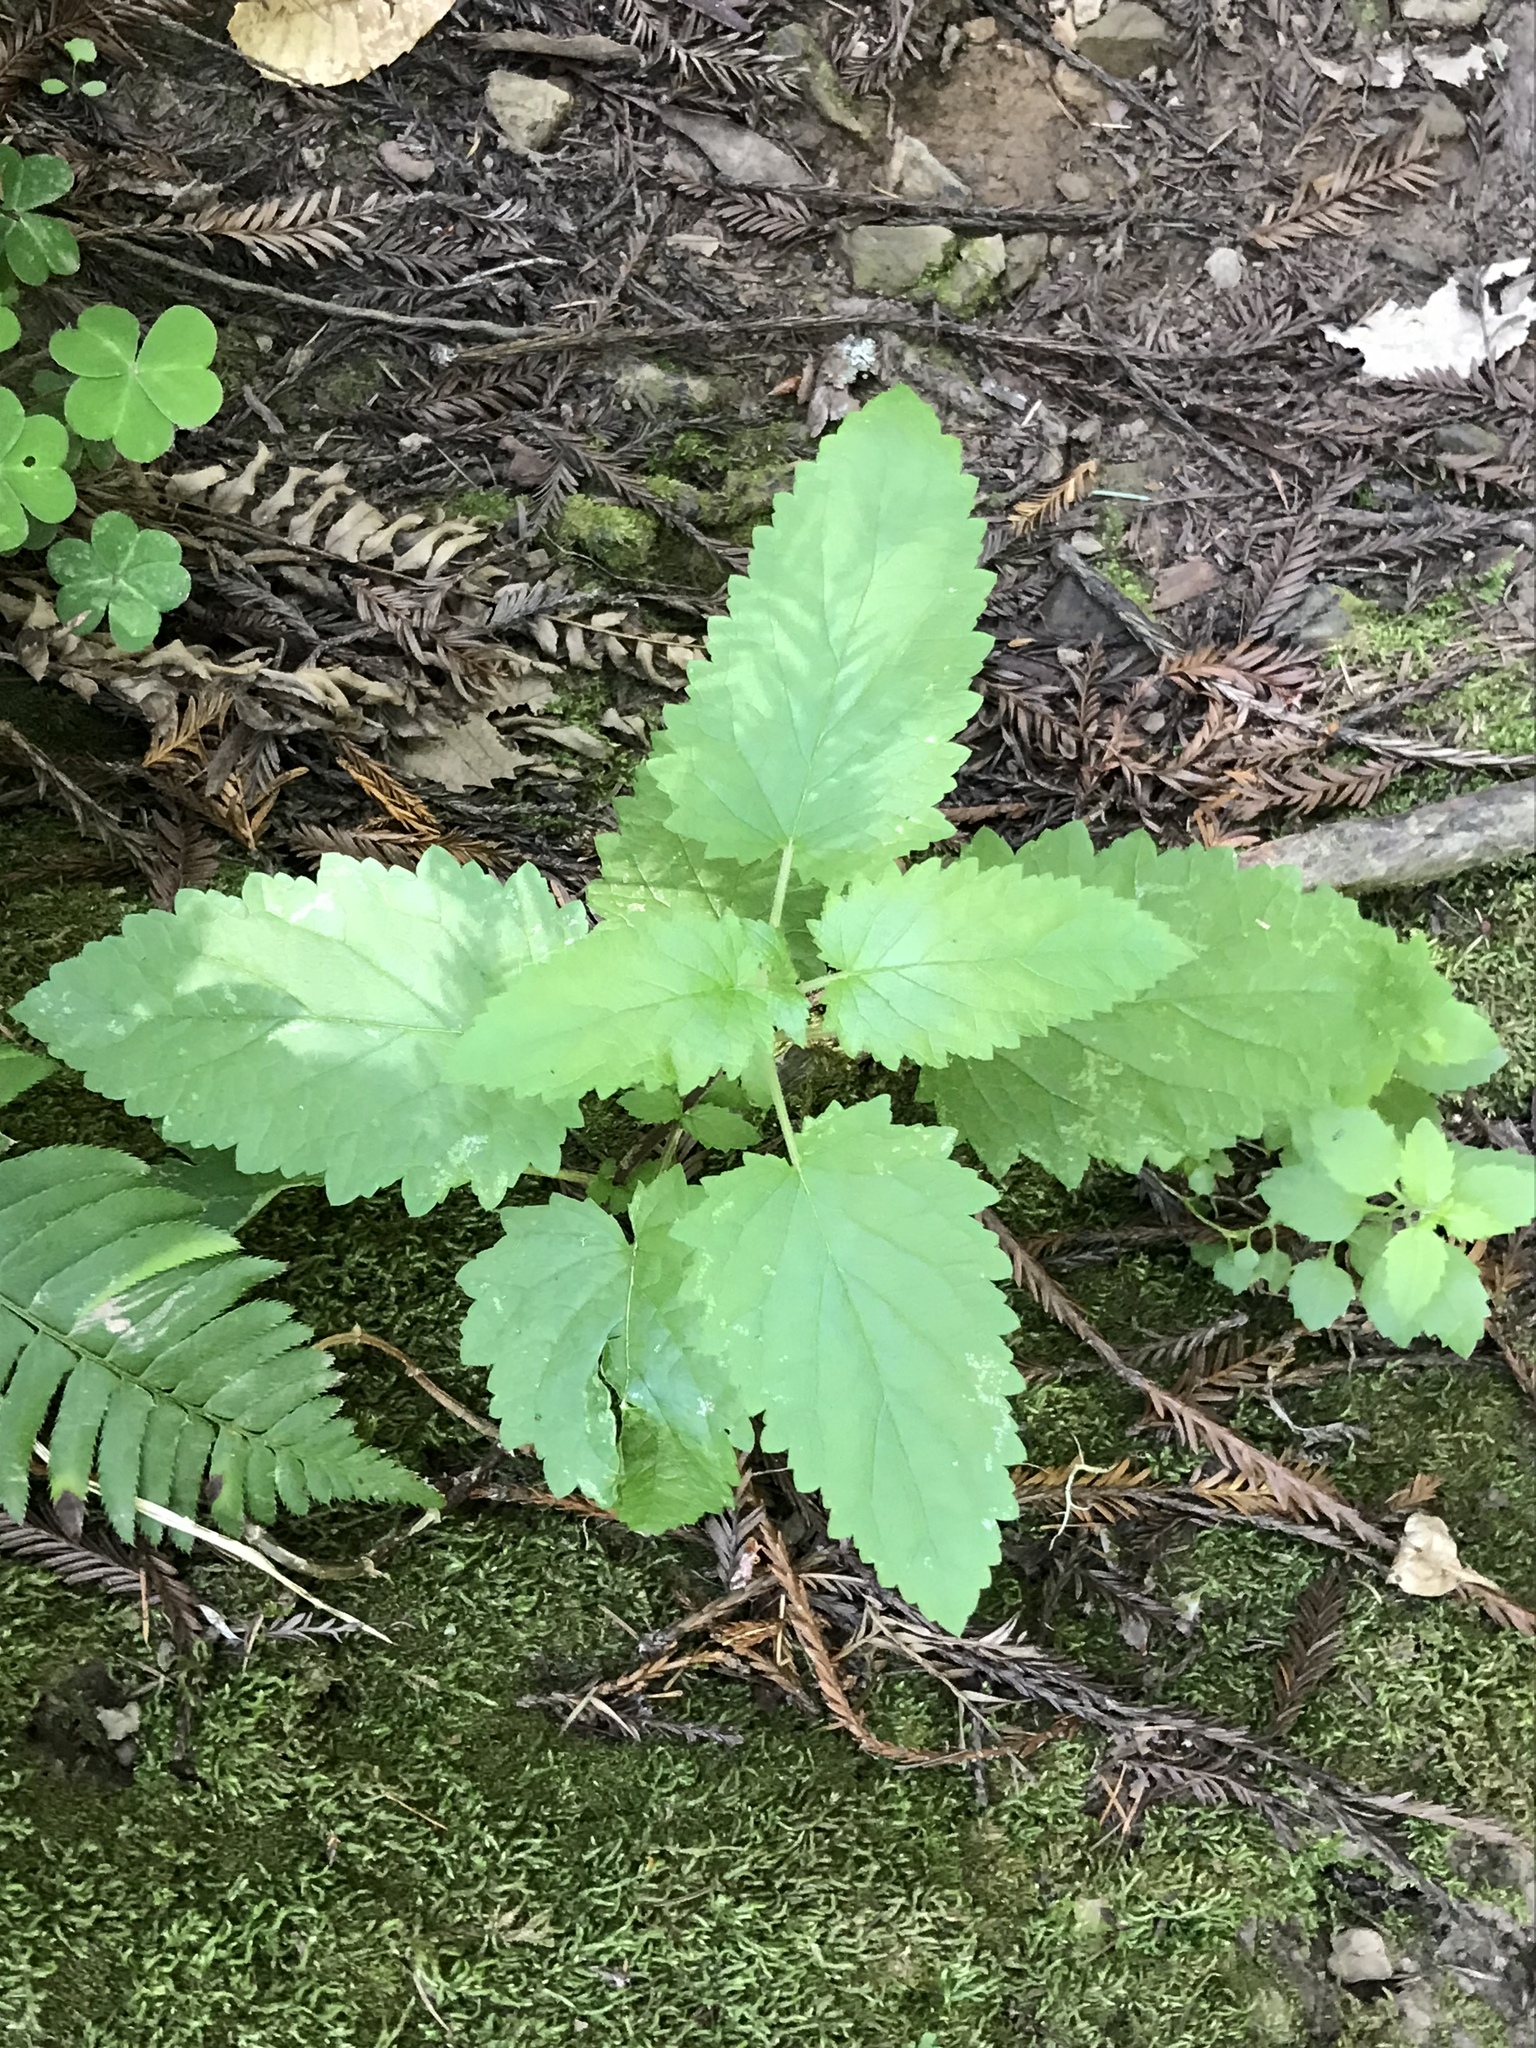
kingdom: Plantae
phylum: Tracheophyta
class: Magnoliopsida
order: Lamiales
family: Scrophulariaceae
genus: Scrophularia
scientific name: Scrophularia californica
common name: California figwort
